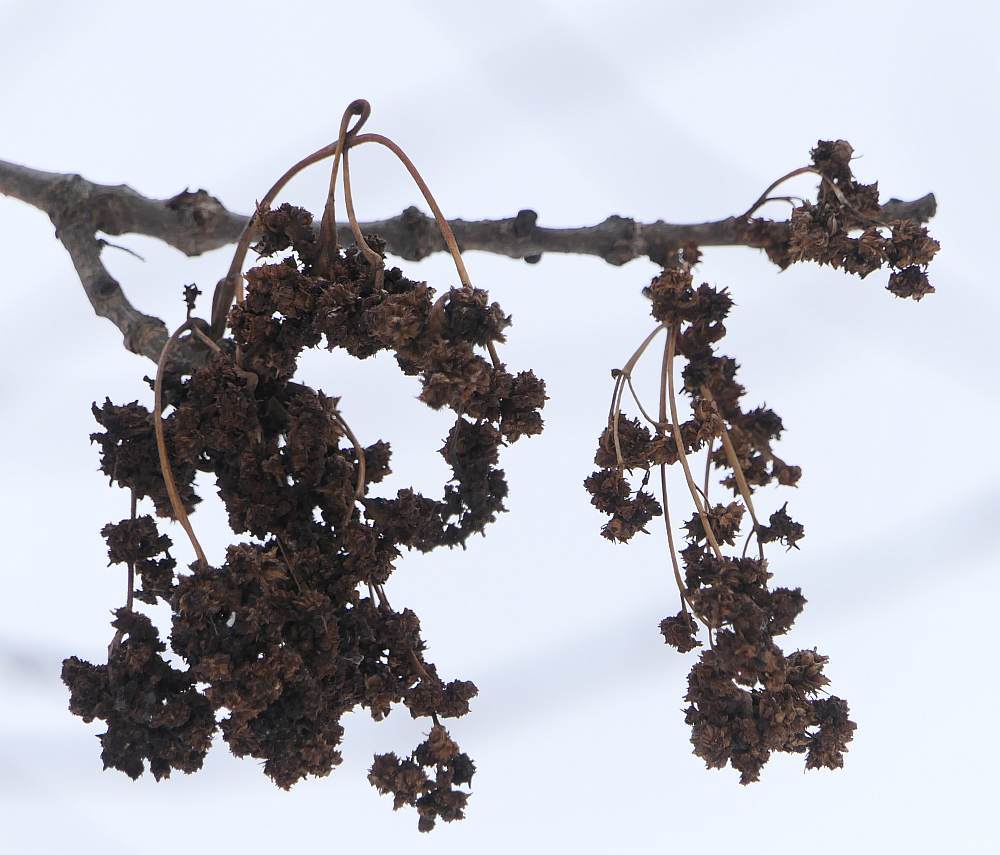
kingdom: Animalia
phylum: Arthropoda
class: Arachnida
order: Trombidiformes
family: Eriophyidae
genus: Aceria
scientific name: Aceria fraxiniflora
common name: Ash flower gall mite
